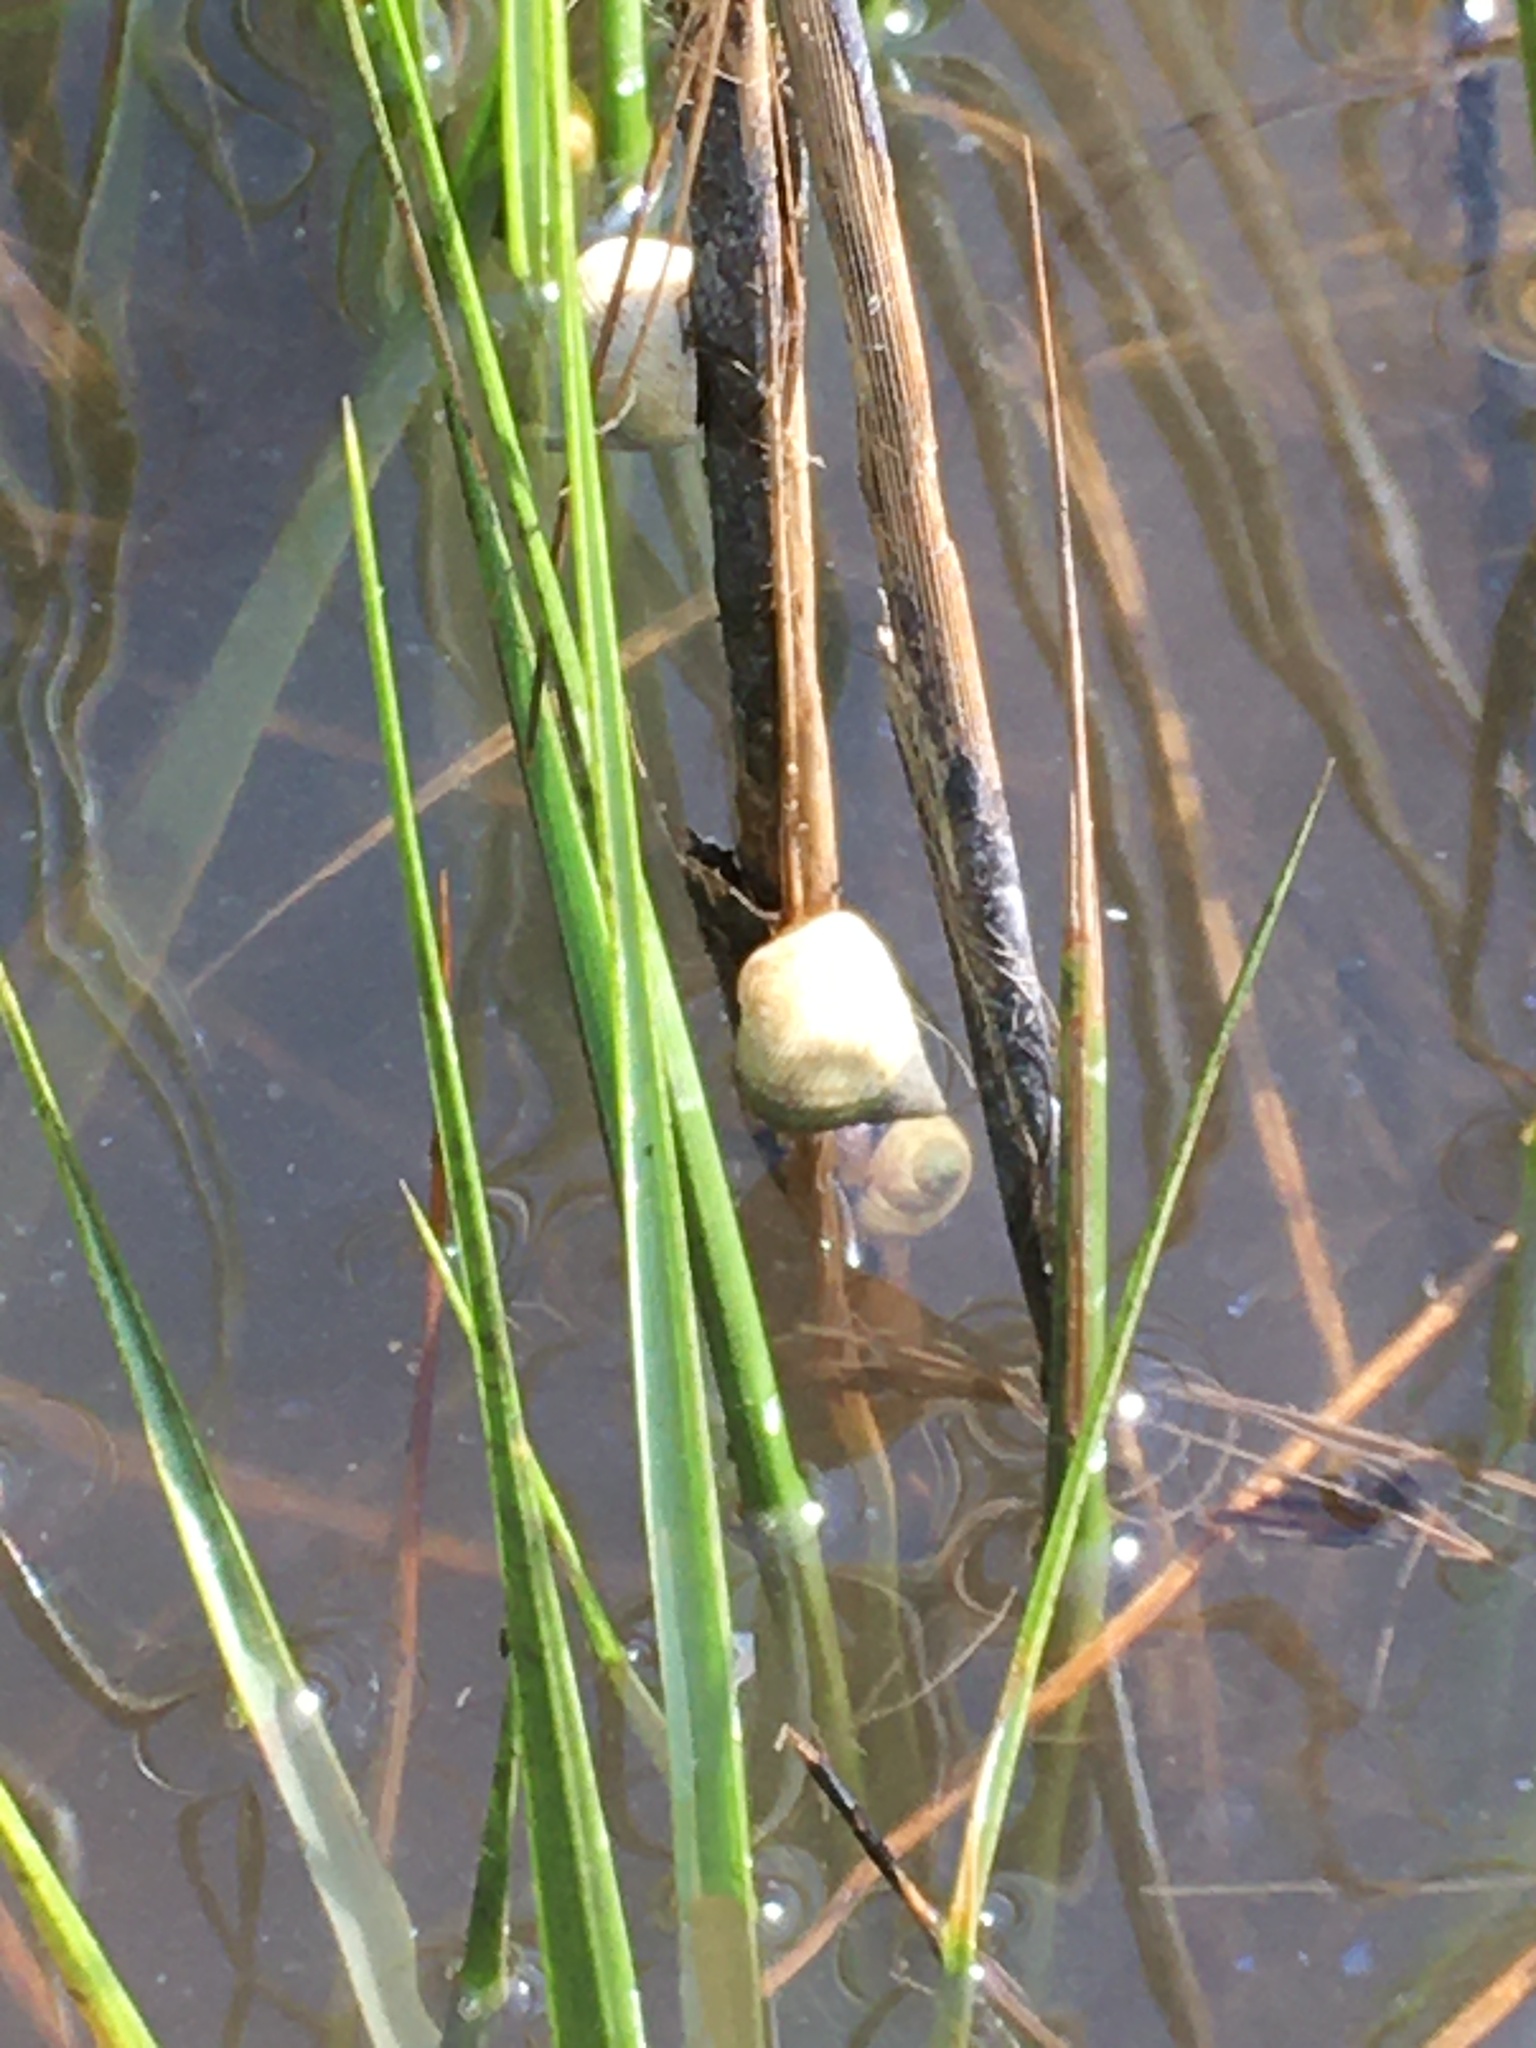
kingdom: Animalia
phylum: Mollusca
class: Gastropoda
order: Littorinimorpha
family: Littorinidae
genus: Littoraria
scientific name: Littoraria irrorata
